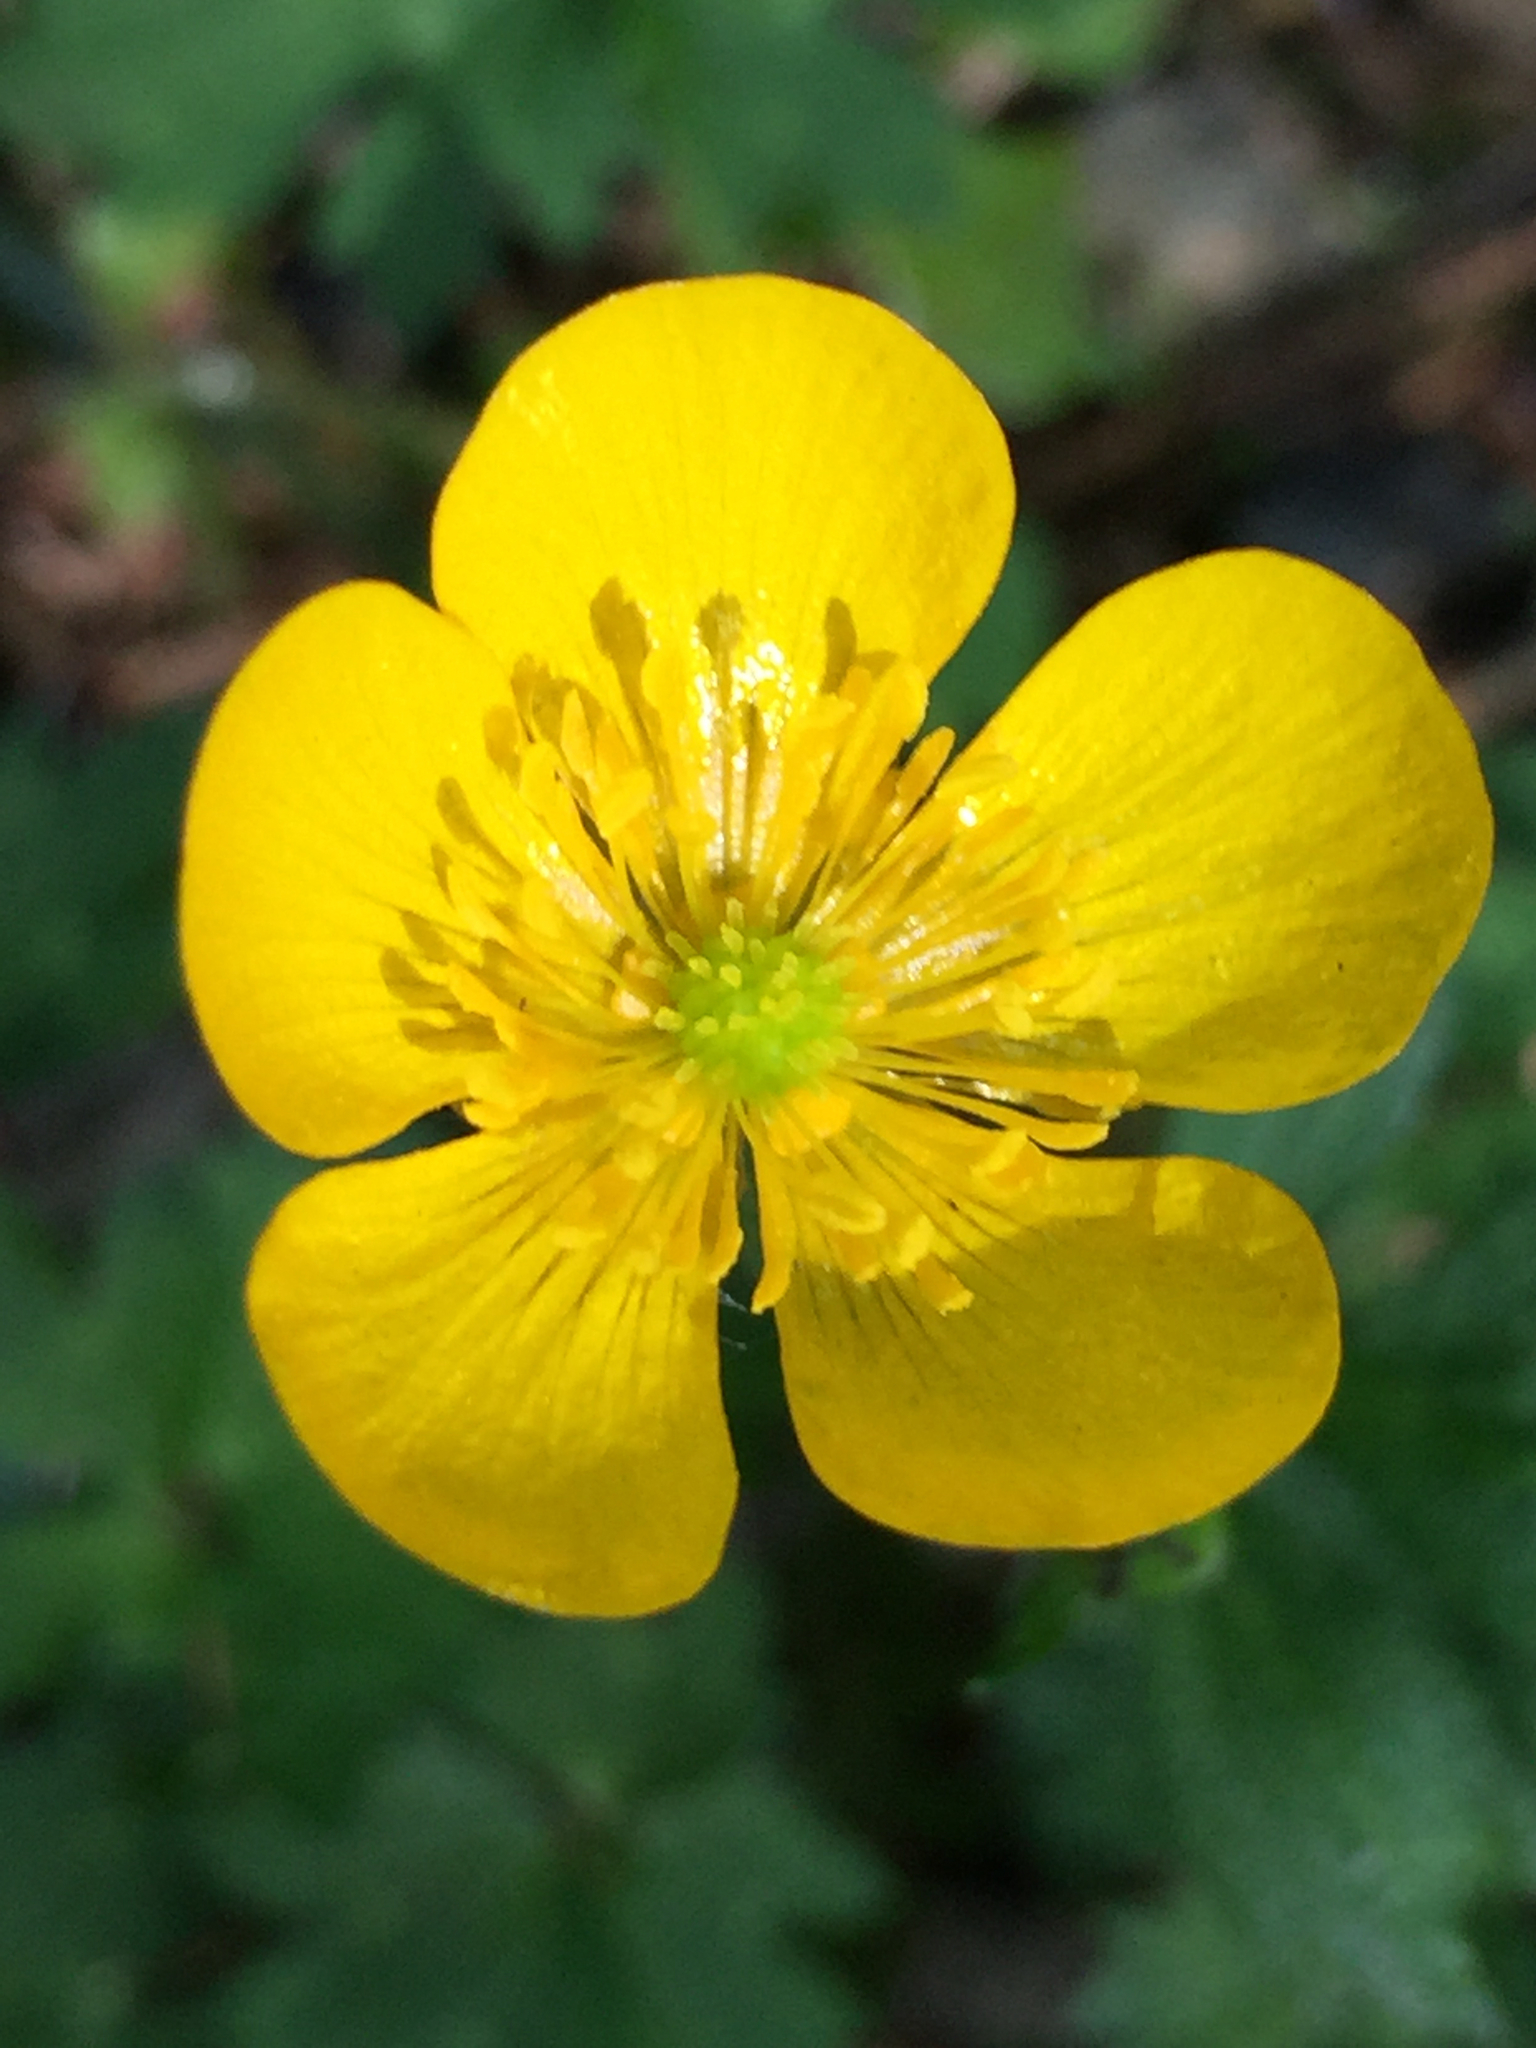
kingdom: Plantae
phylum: Tracheophyta
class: Magnoliopsida
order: Ranunculales
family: Ranunculaceae
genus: Ranunculus
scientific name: Ranunculus repens
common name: Creeping buttercup
